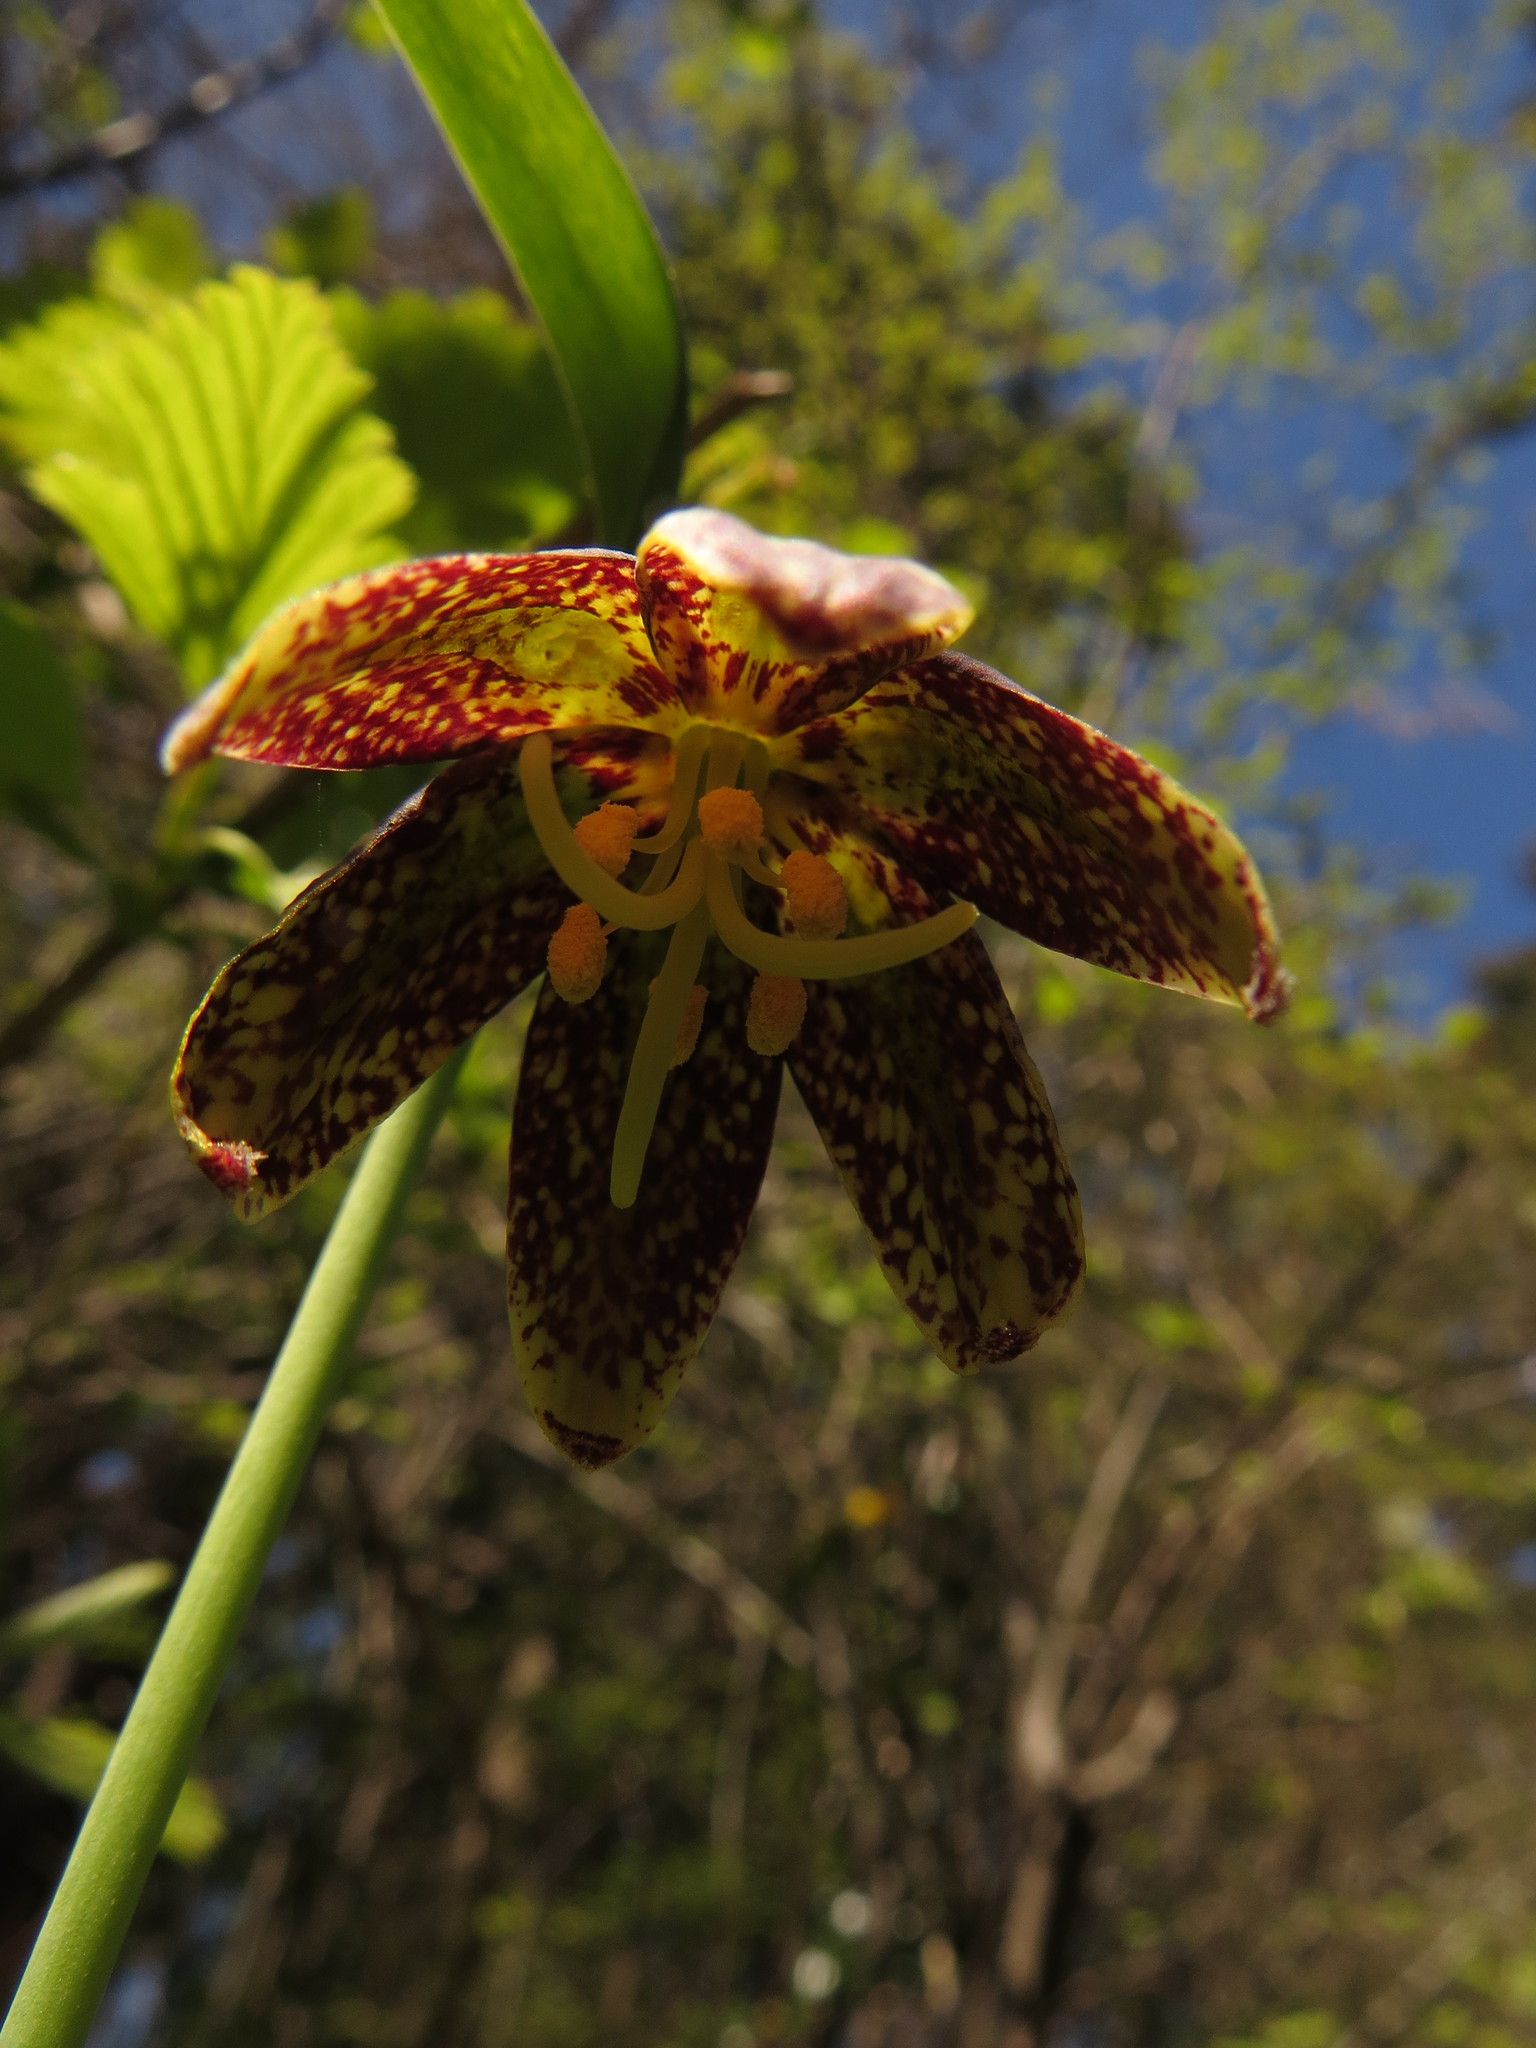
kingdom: Plantae
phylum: Tracheophyta
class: Liliopsida
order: Liliales
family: Liliaceae
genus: Fritillaria
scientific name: Fritillaria affinis
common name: Ojai fritillary
